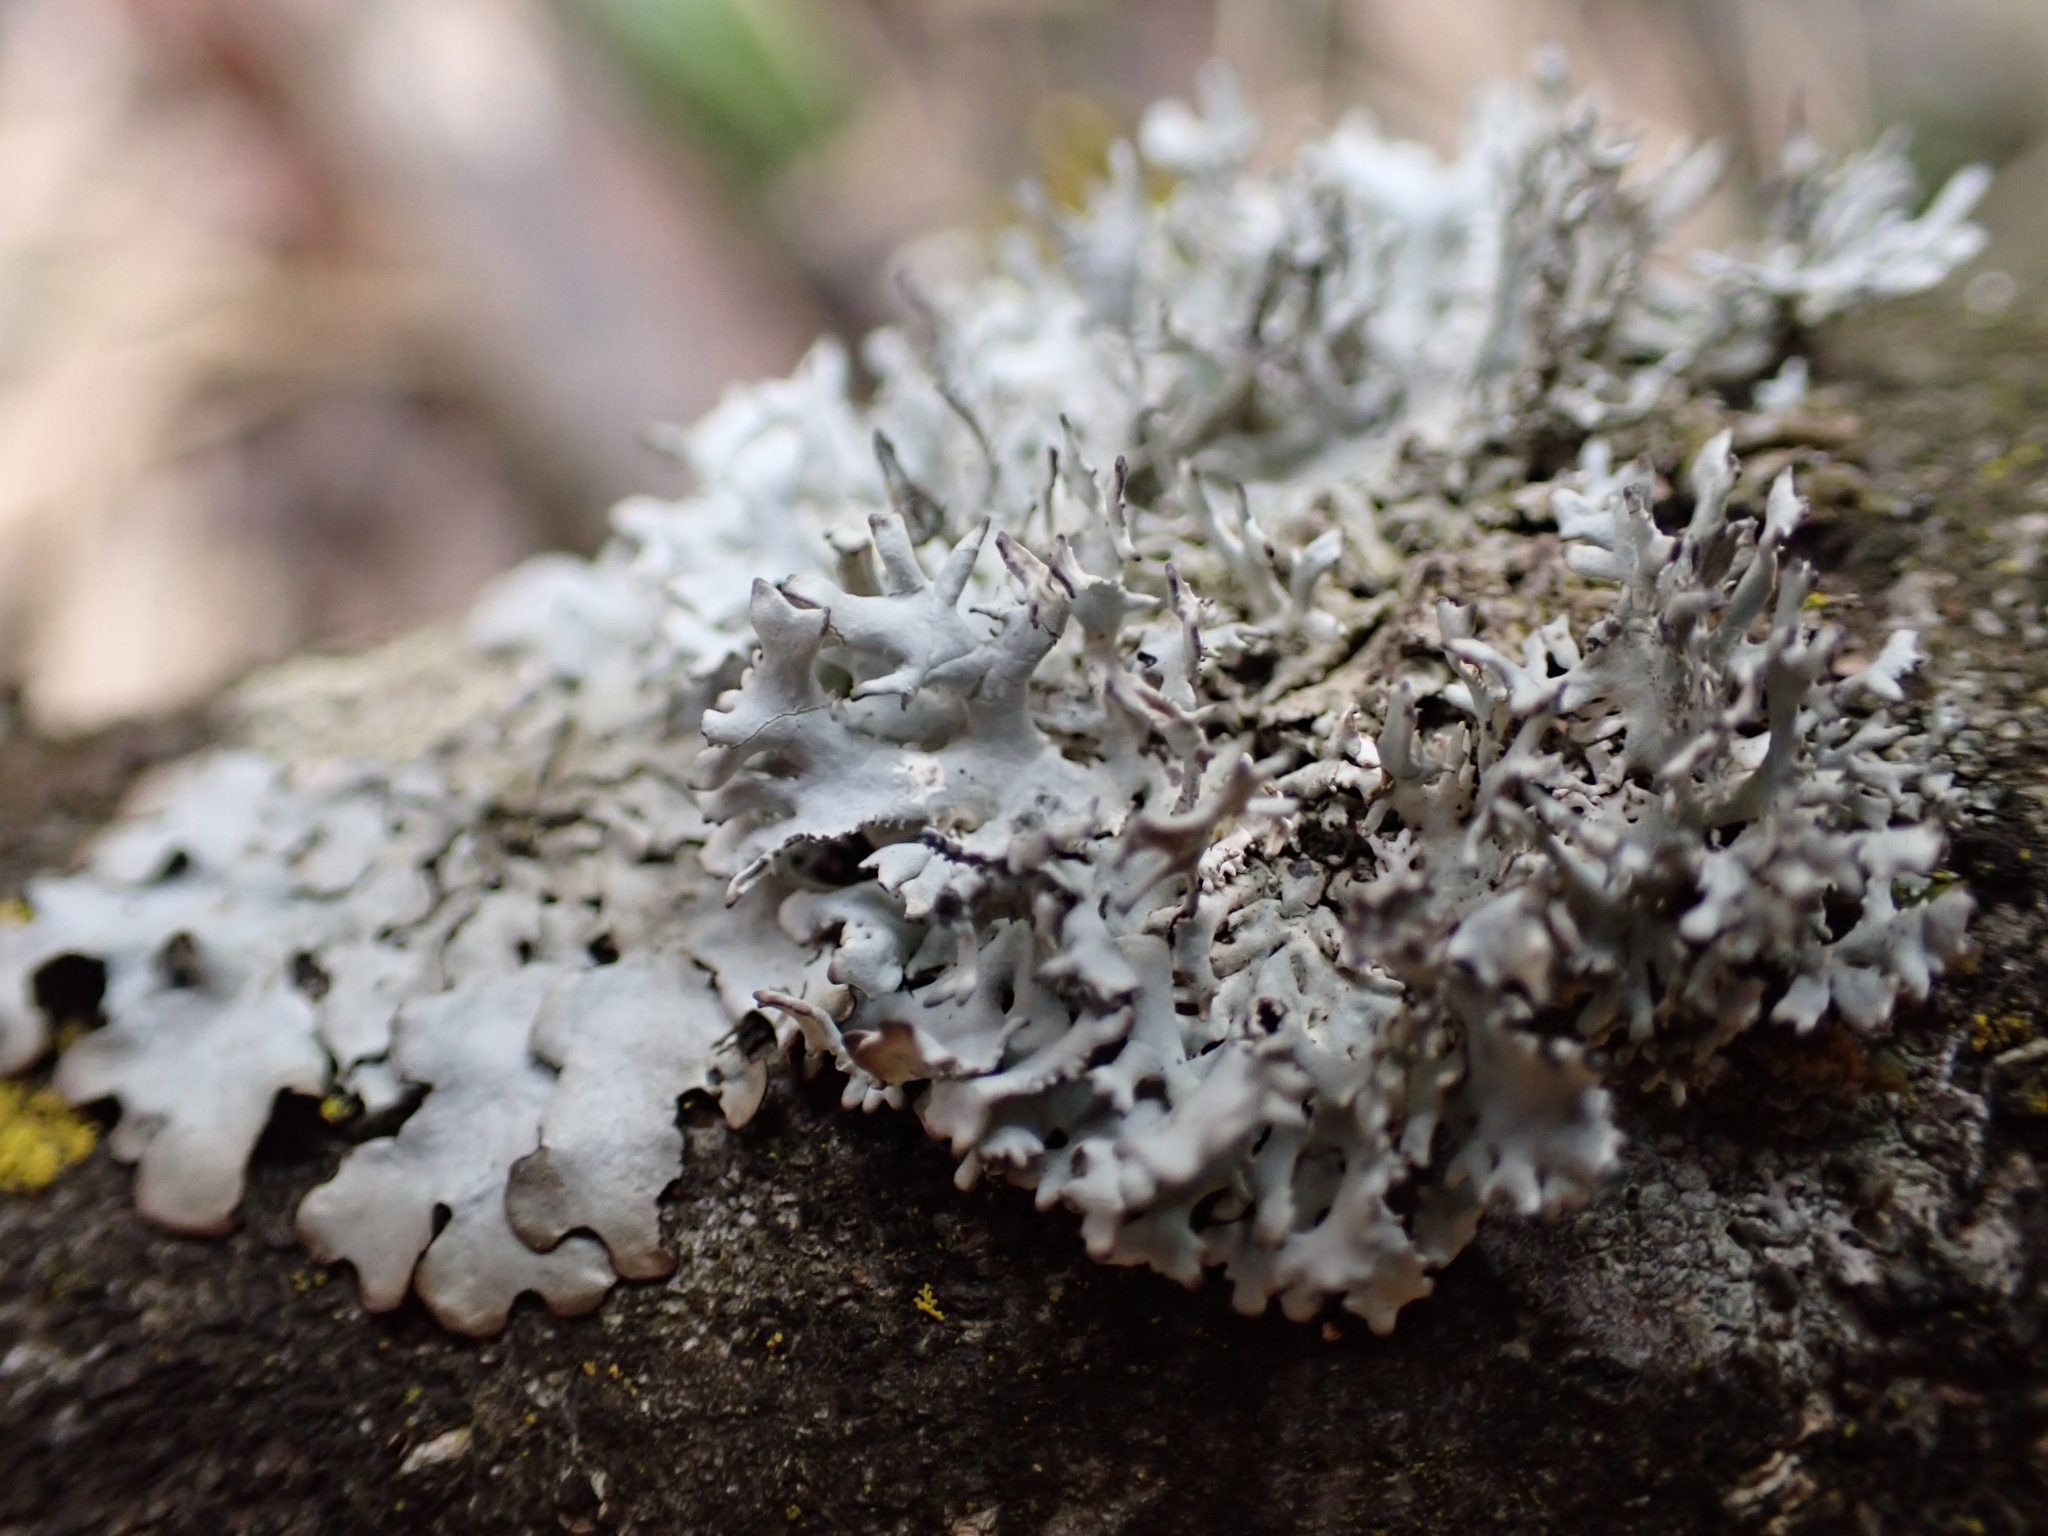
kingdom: Fungi
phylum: Ascomycota
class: Lecanoromycetes
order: Lecanorales
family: Parmeliaceae
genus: Pseudevernia
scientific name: Pseudevernia furfuracea
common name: Tree moss
